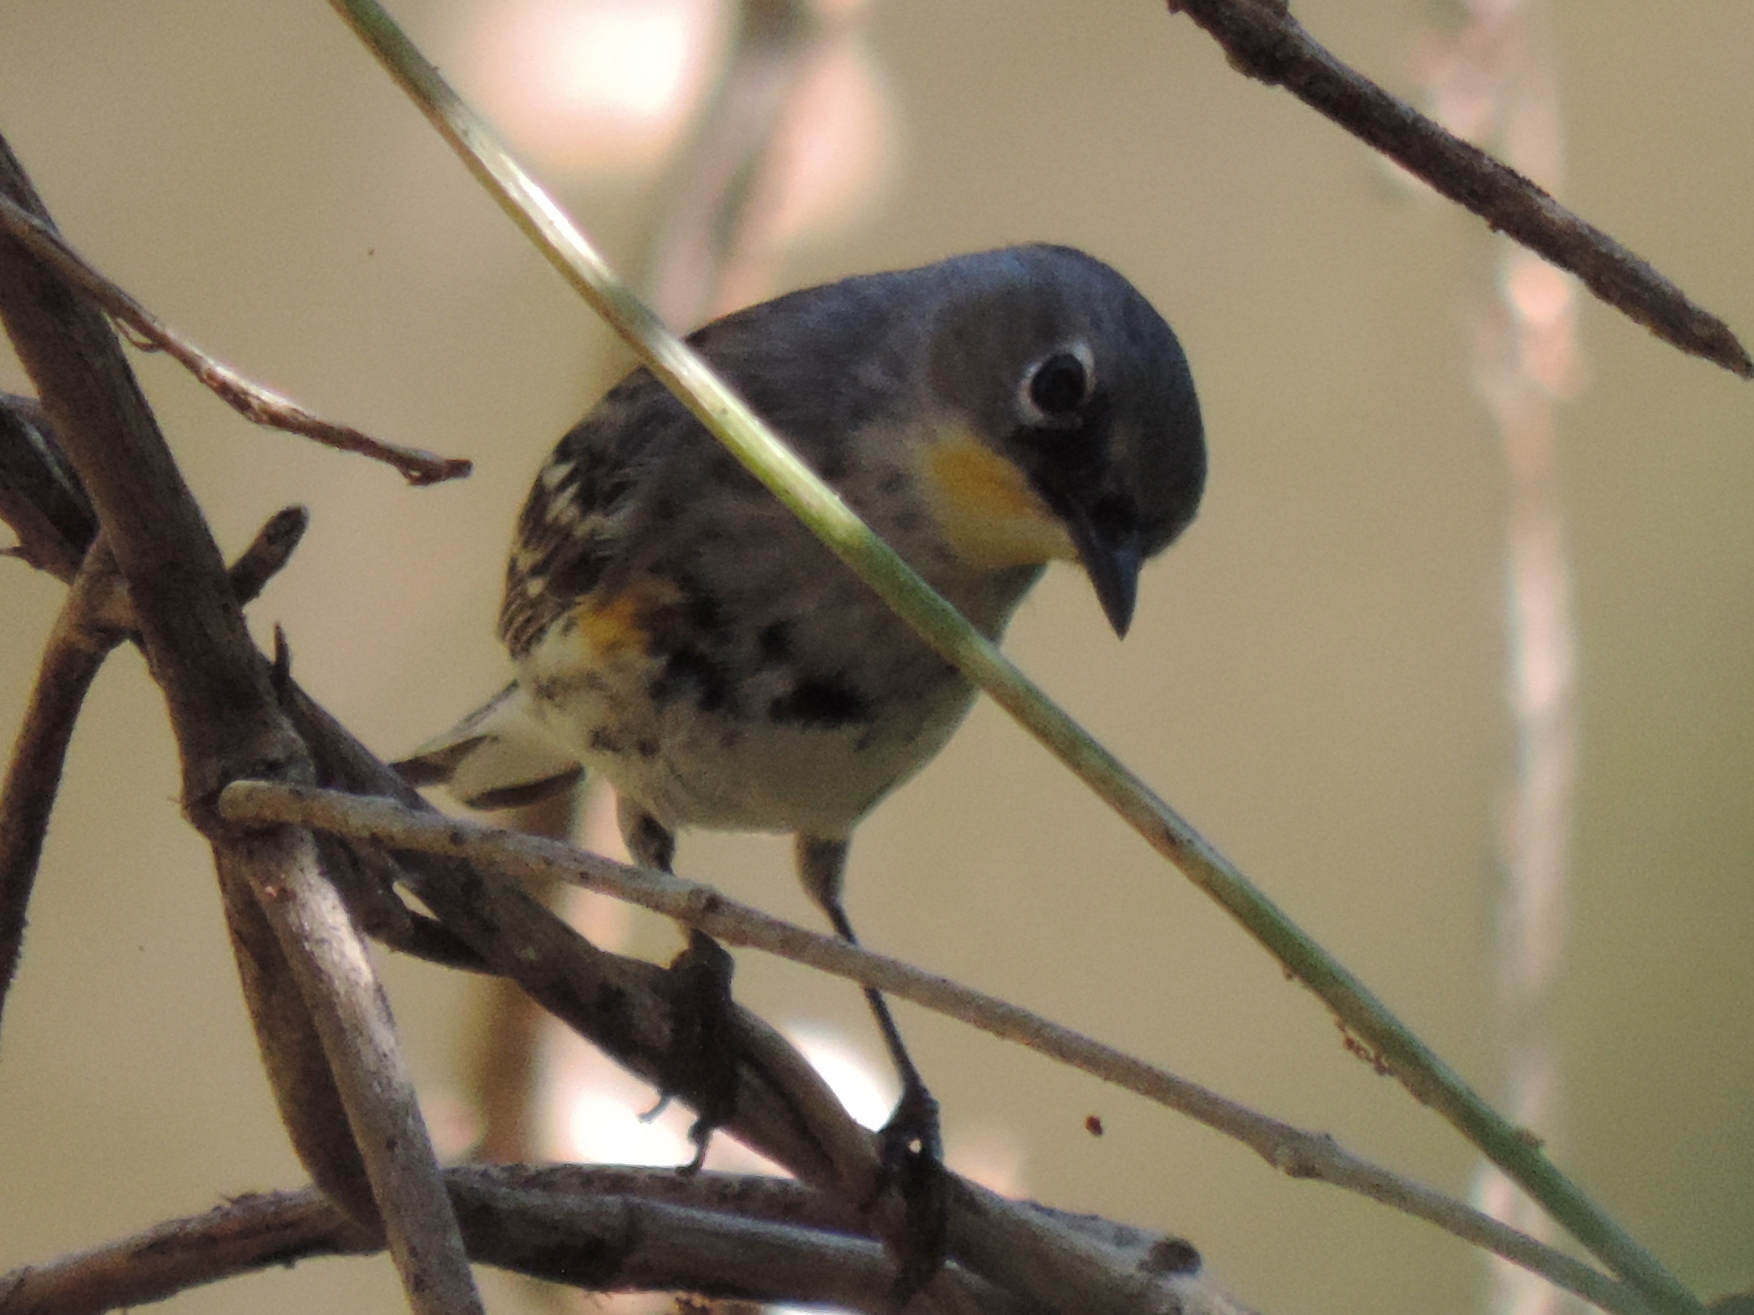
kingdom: Animalia
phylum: Chordata
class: Aves
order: Passeriformes
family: Parulidae
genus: Setophaga
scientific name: Setophaga coronata
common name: Myrtle warbler
